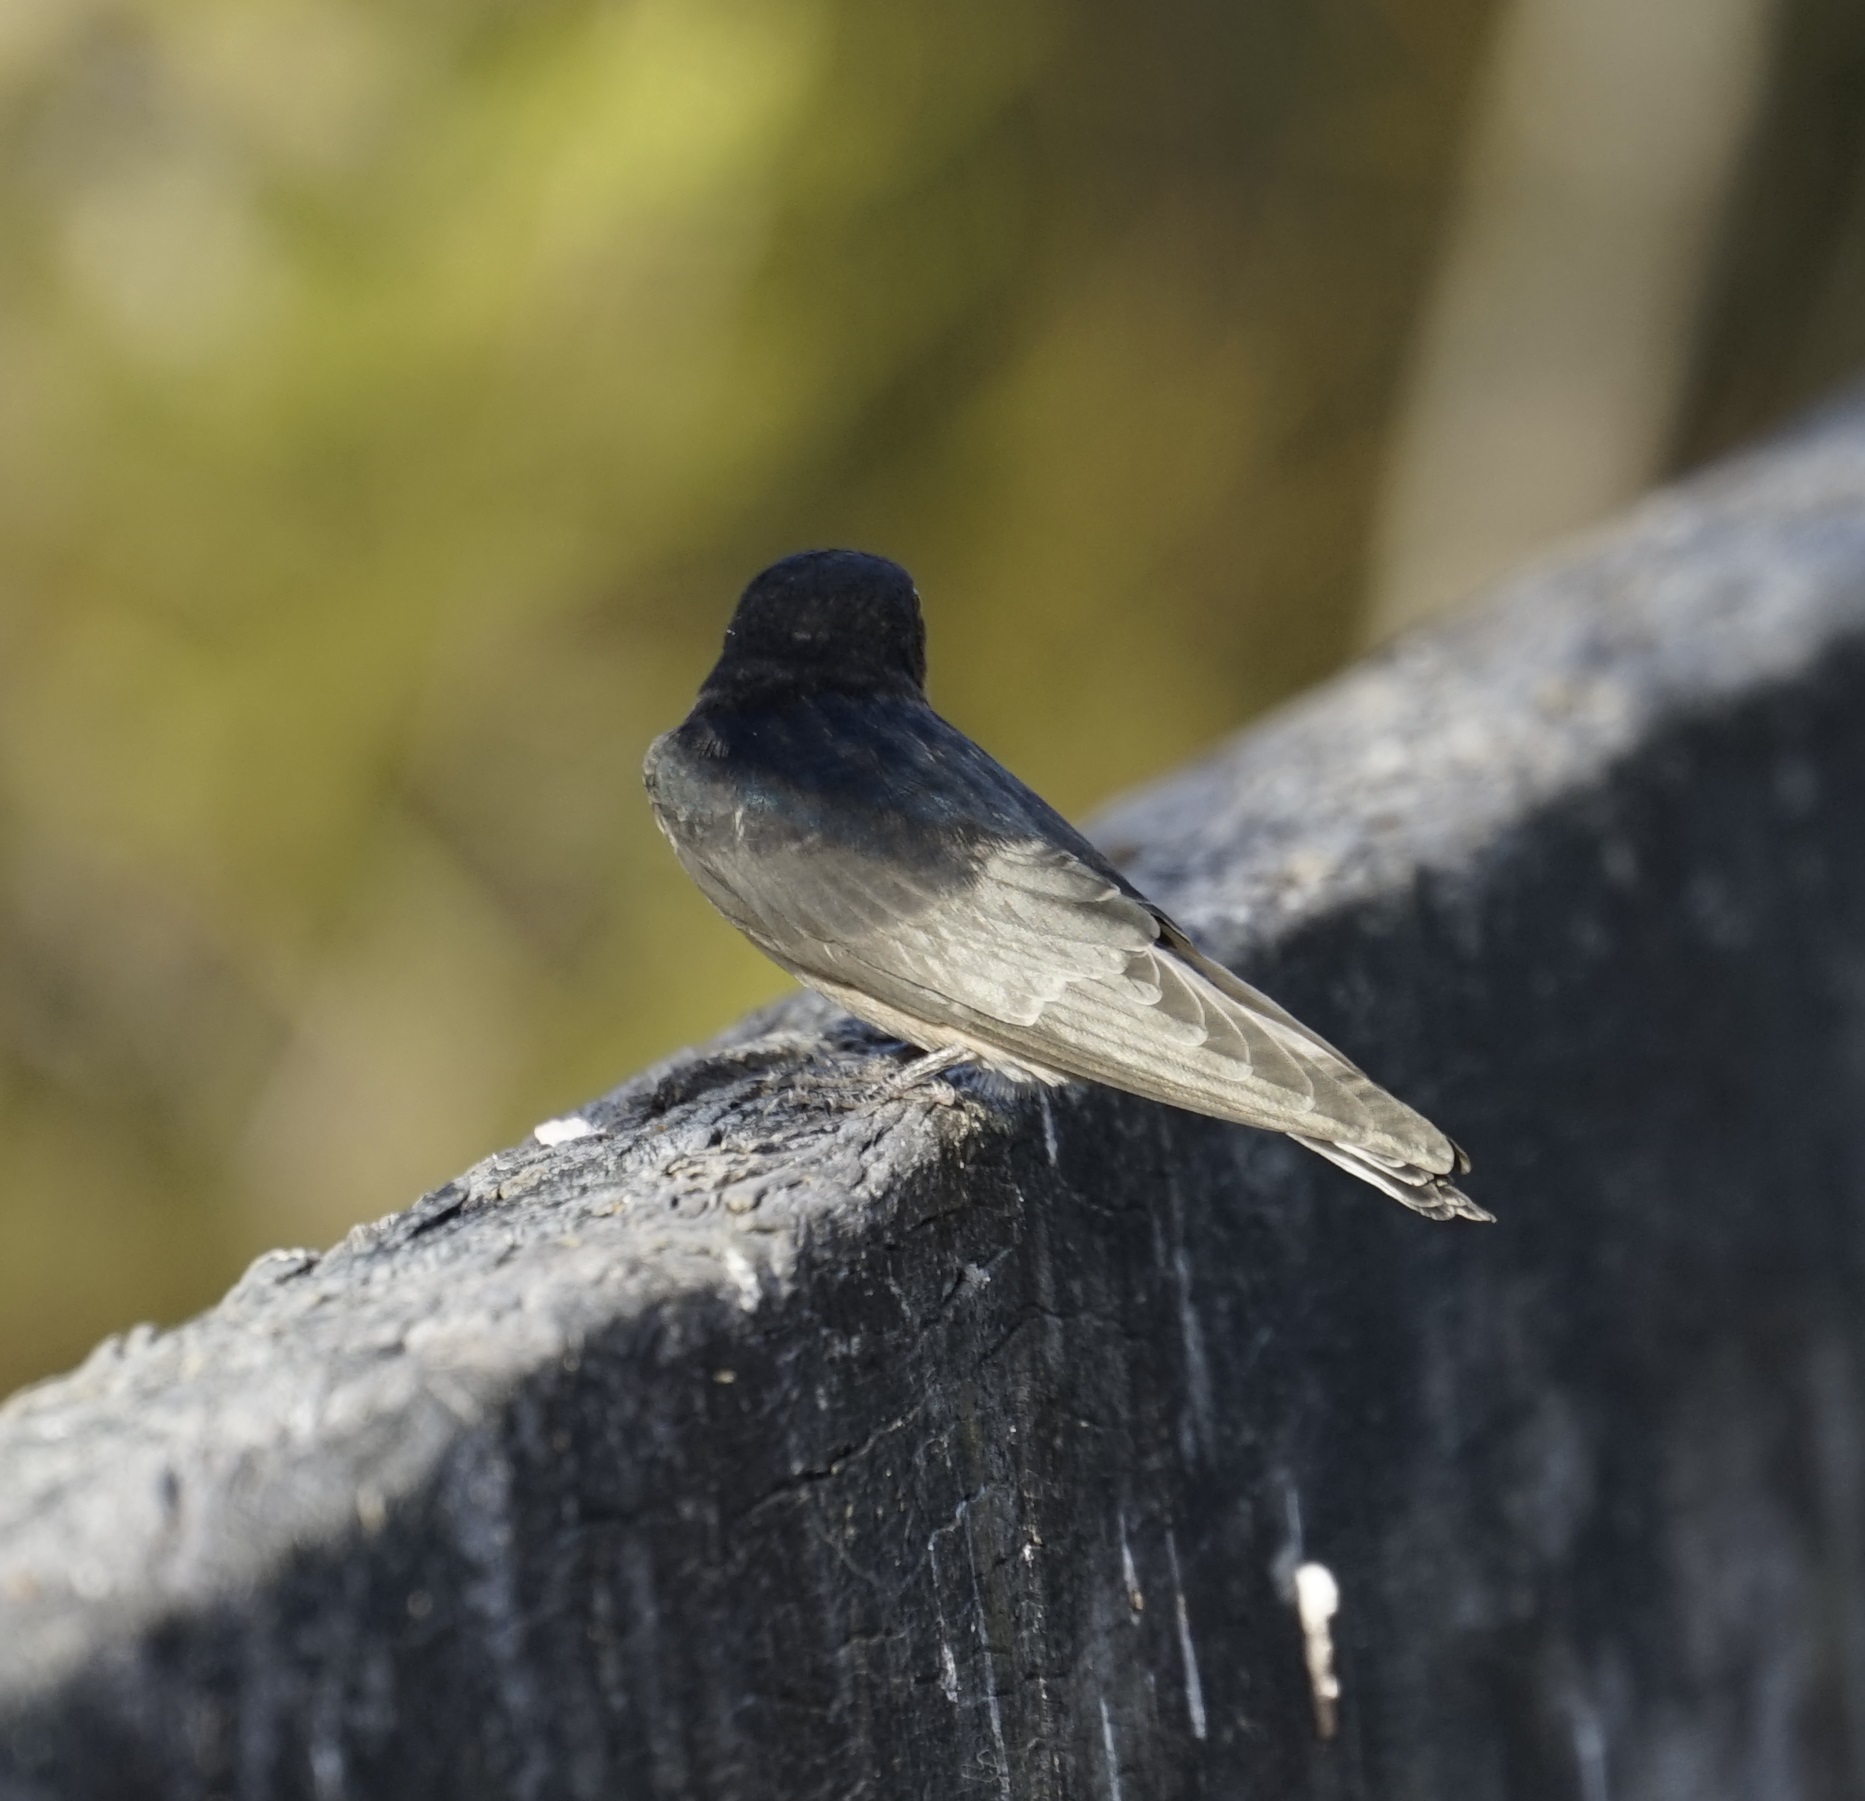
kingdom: Animalia
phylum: Chordata
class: Aves
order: Passeriformes
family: Hirundinidae
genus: Hirundo
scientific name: Hirundo neoxena
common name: Welcome swallow
